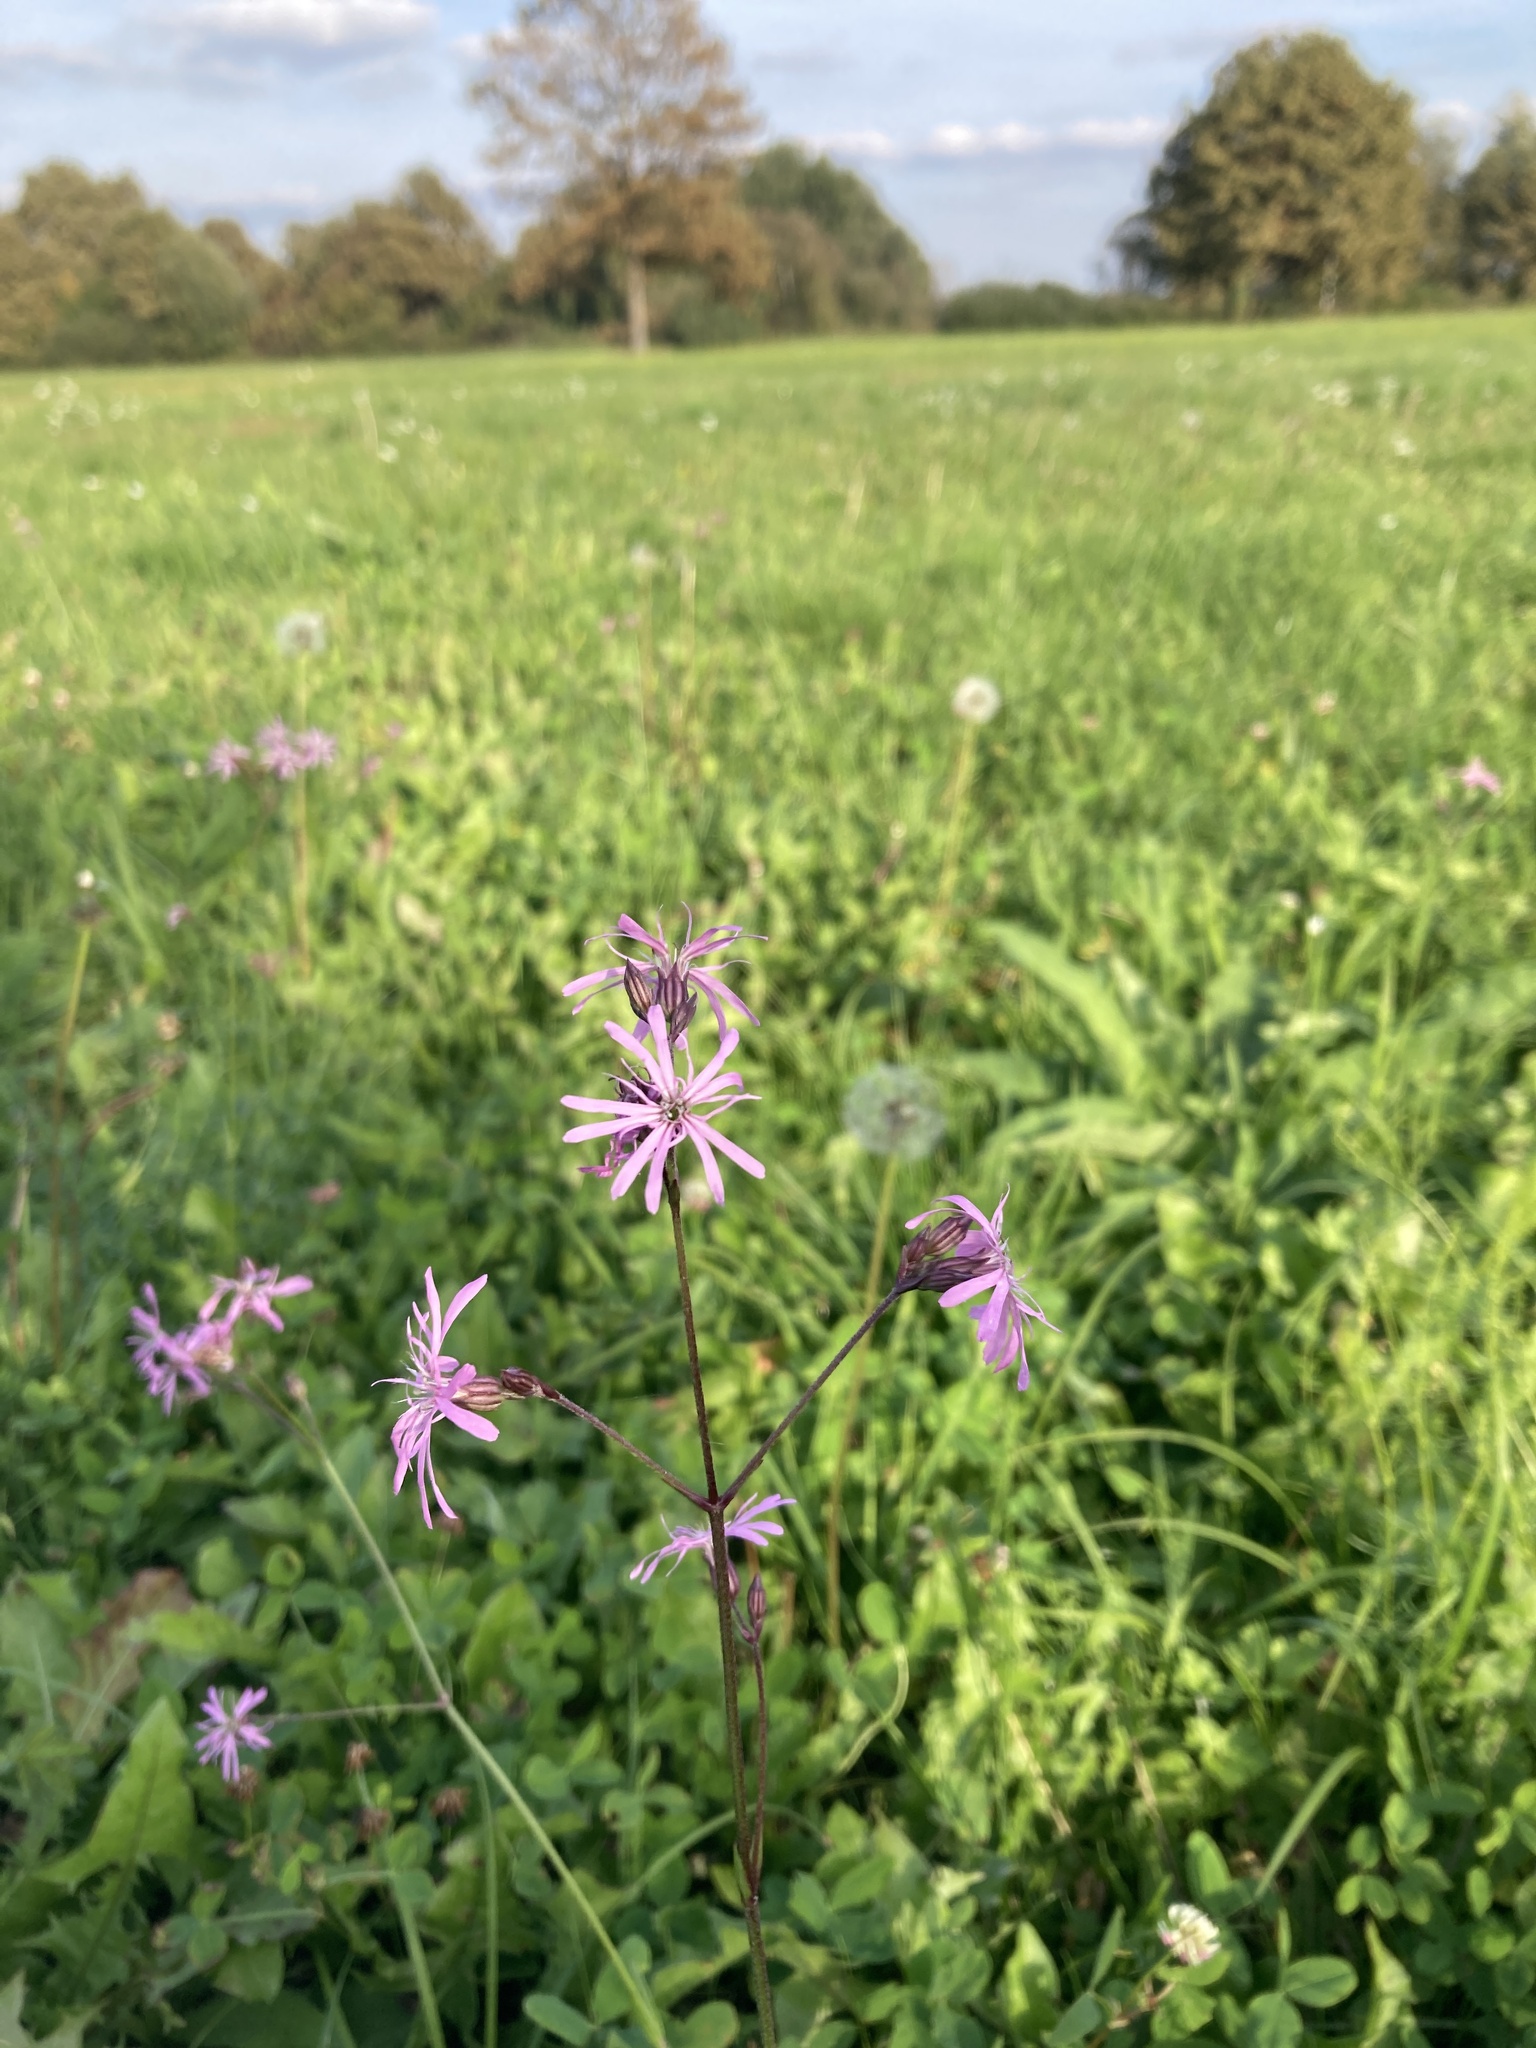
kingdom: Plantae
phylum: Tracheophyta
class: Magnoliopsida
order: Caryophyllales
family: Caryophyllaceae
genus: Silene
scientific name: Silene flos-cuculi
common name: Ragged-robin
